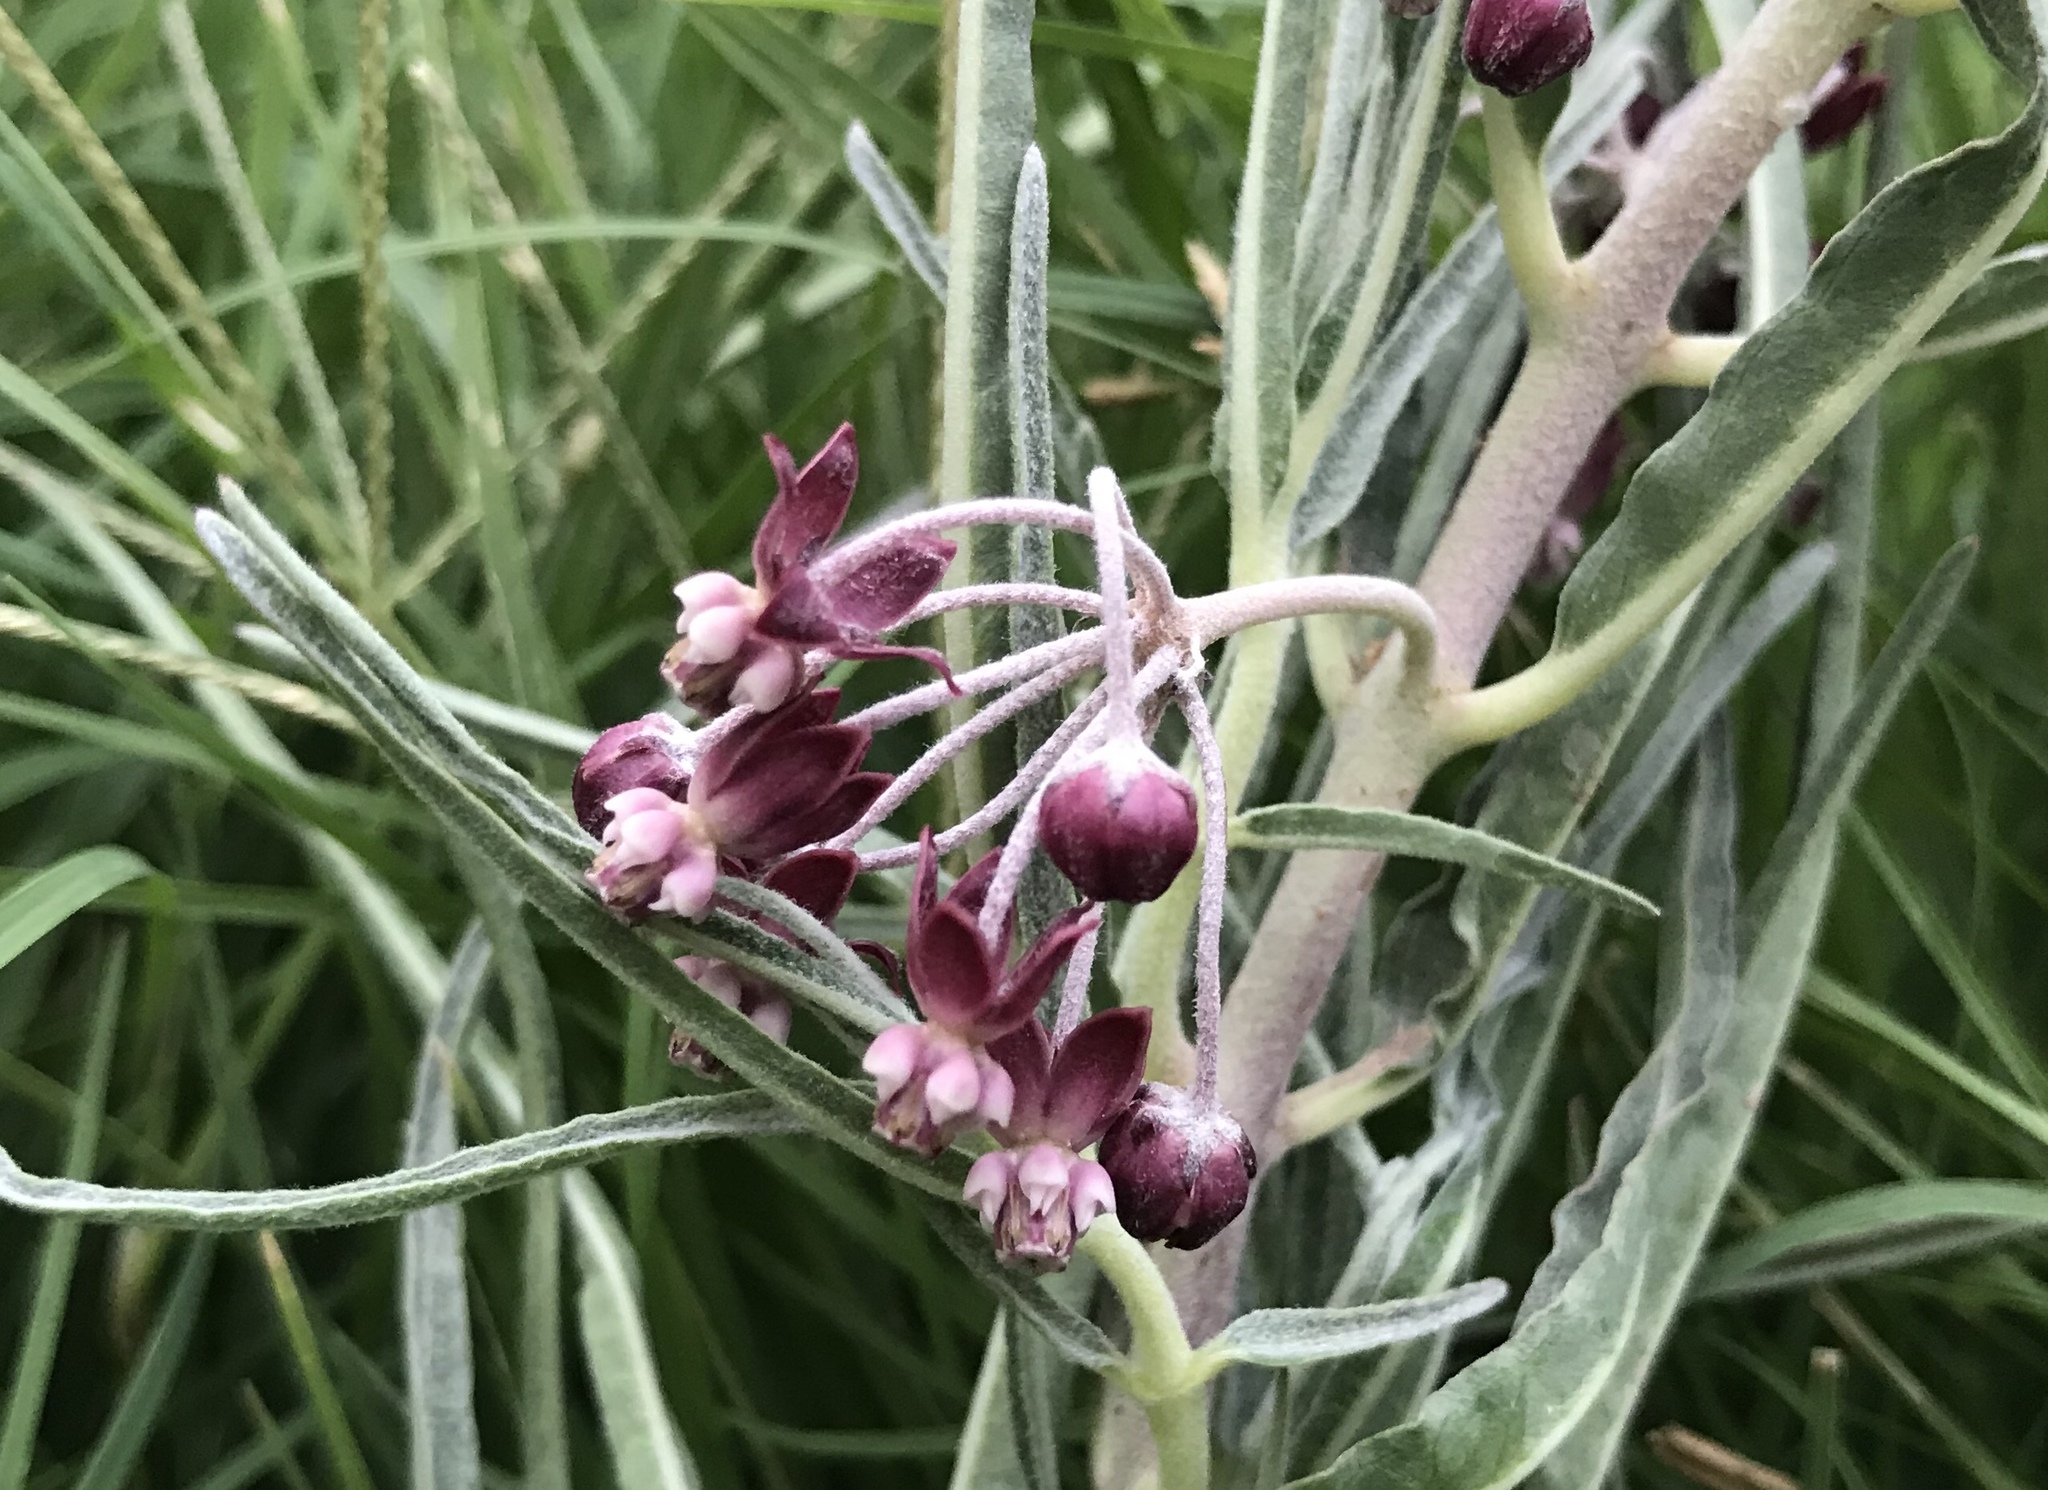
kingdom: Plantae
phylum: Tracheophyta
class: Magnoliopsida
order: Gentianales
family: Apocynaceae
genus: Asclepias
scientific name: Asclepias brachystephana
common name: Shortcrown milkweed
